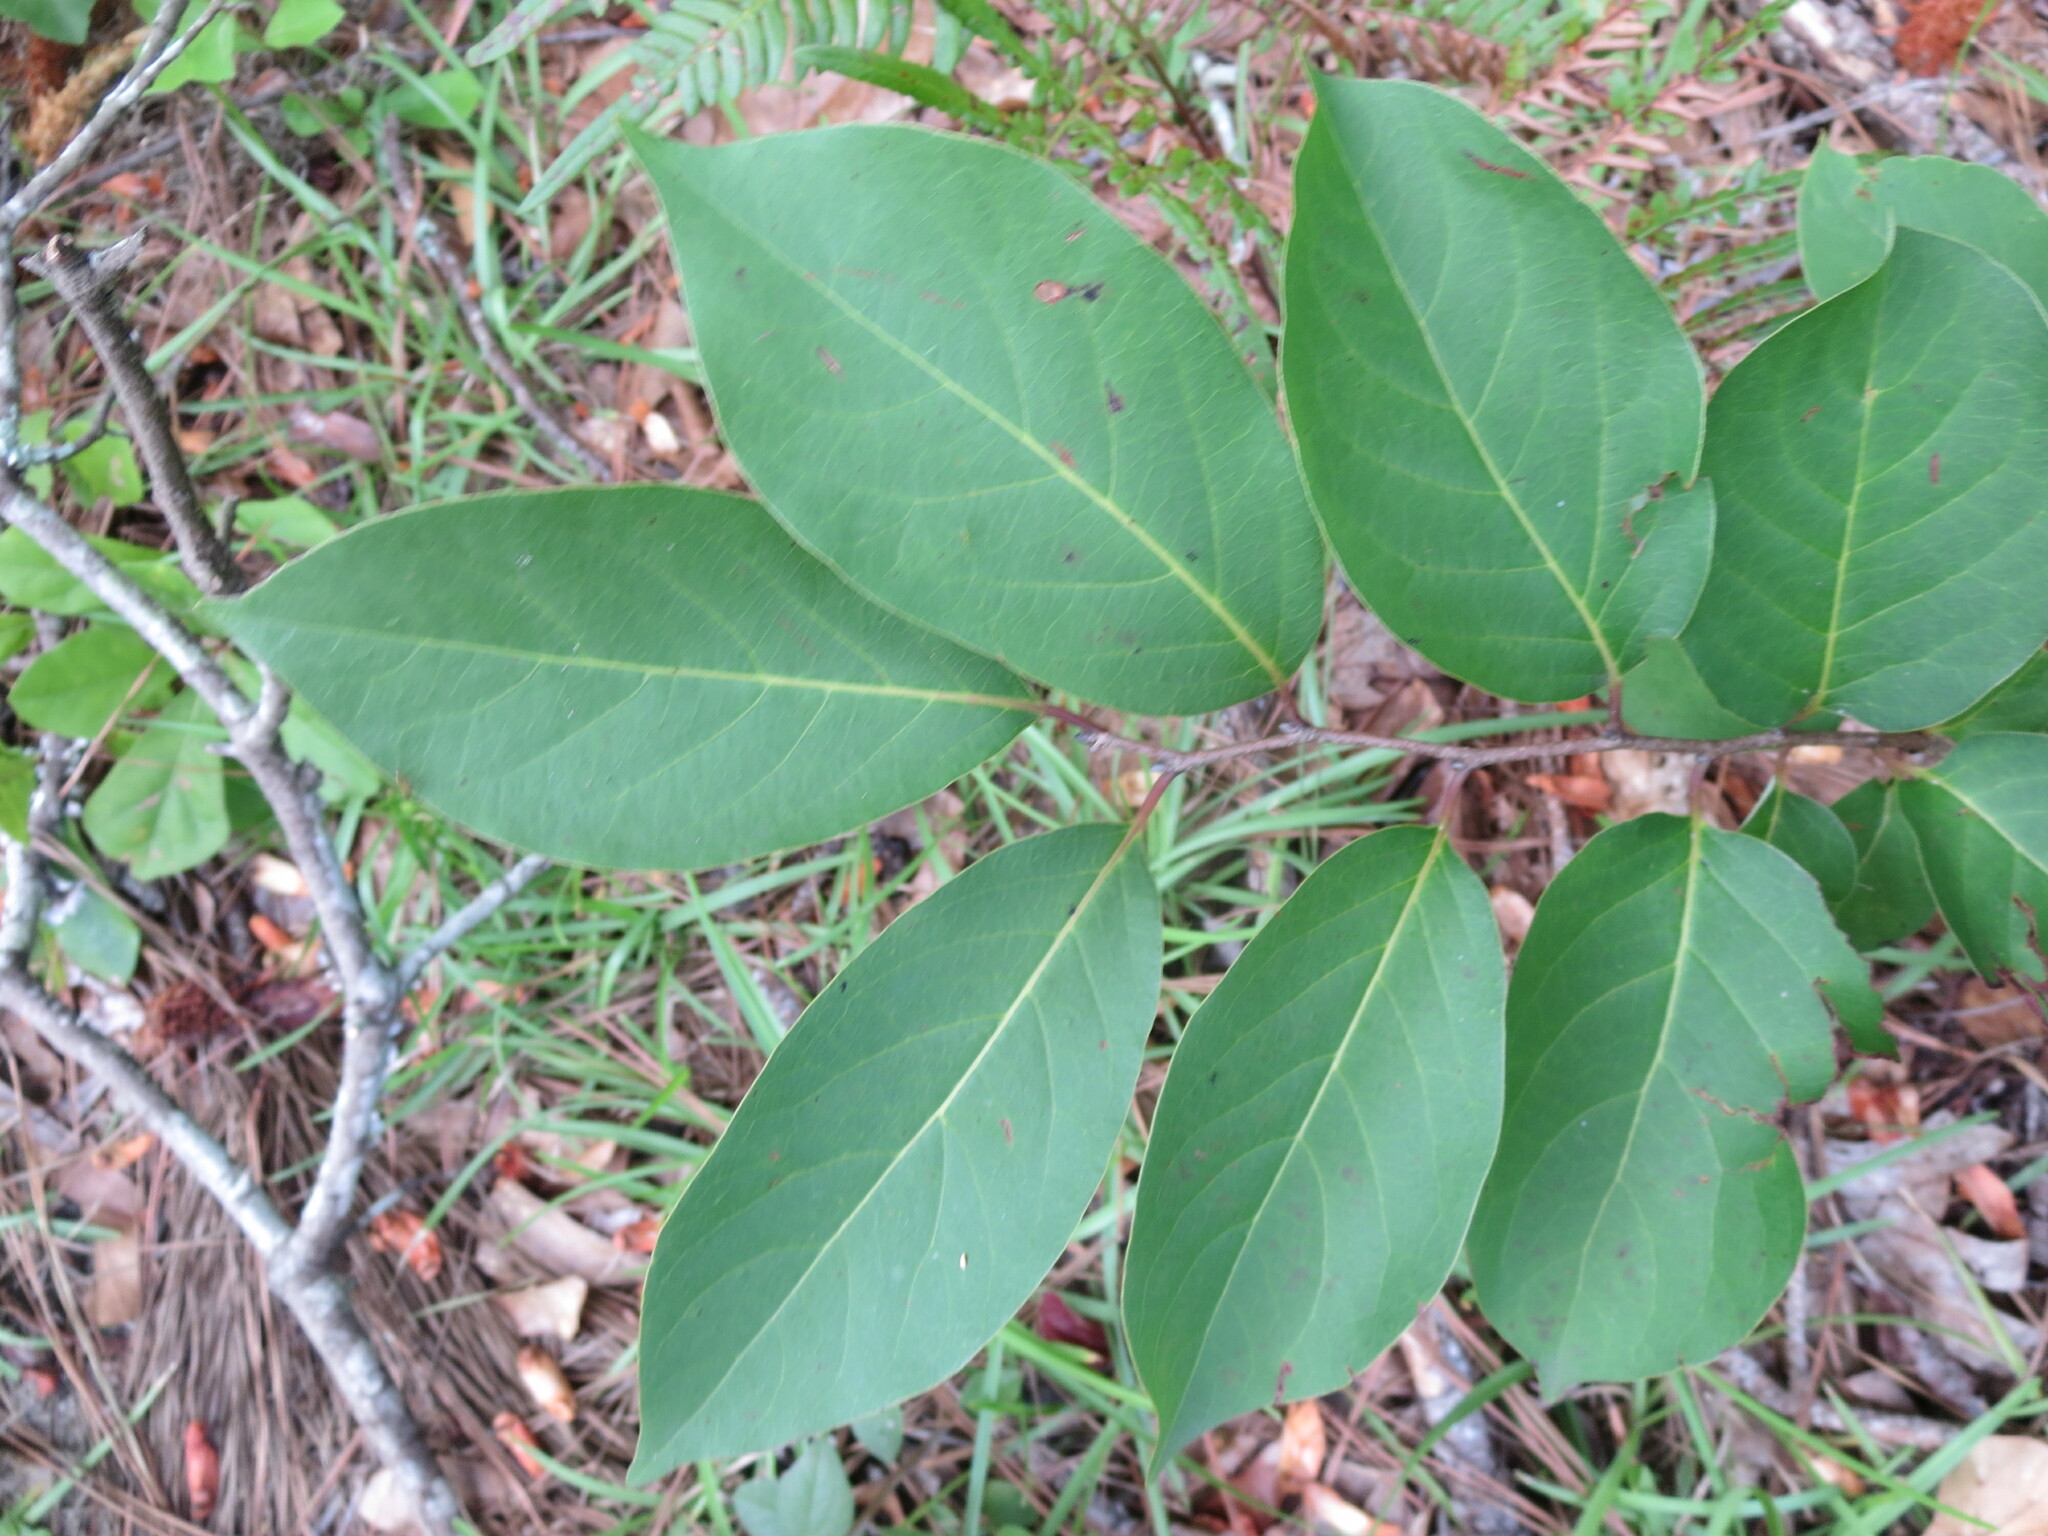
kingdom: Plantae
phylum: Tracheophyta
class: Magnoliopsida
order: Ericales
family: Ebenaceae
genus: Diospyros
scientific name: Diospyros virginiana
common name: Persimmon
